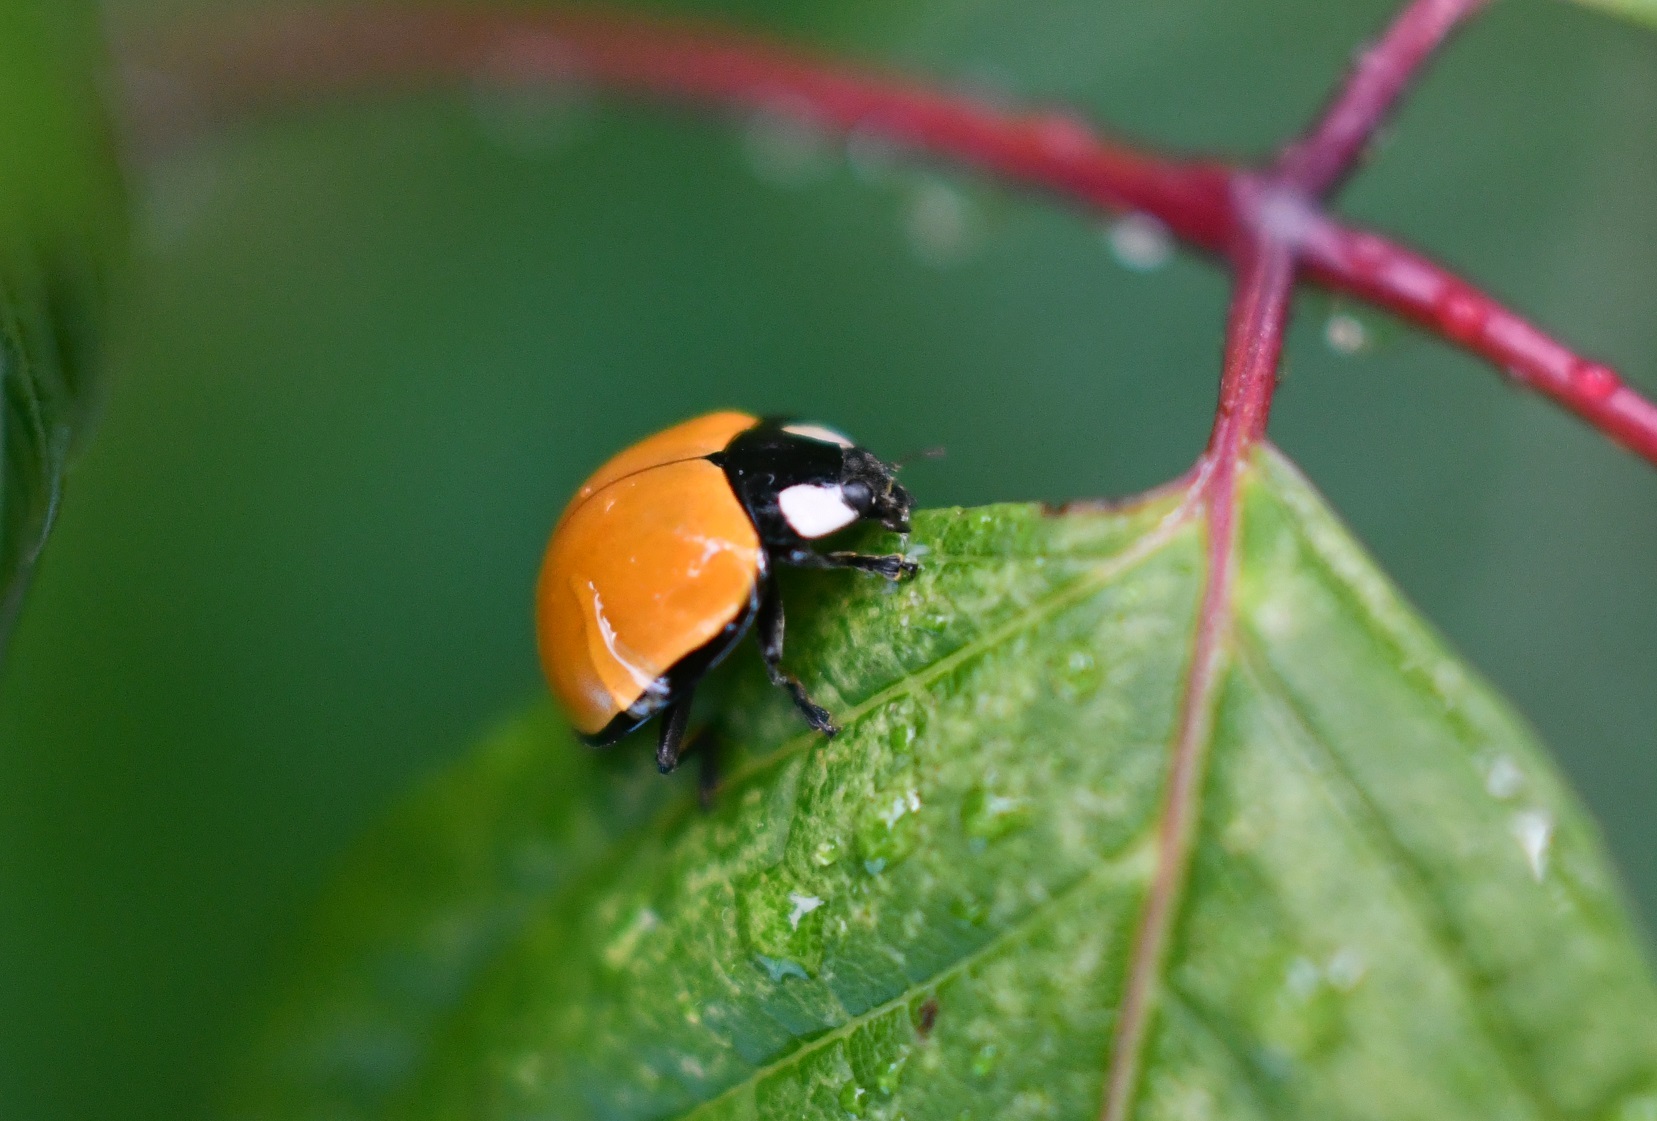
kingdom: Animalia
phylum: Arthropoda
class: Insecta
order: Coleoptera
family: Coccinellidae
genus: Anatis
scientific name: Anatis
